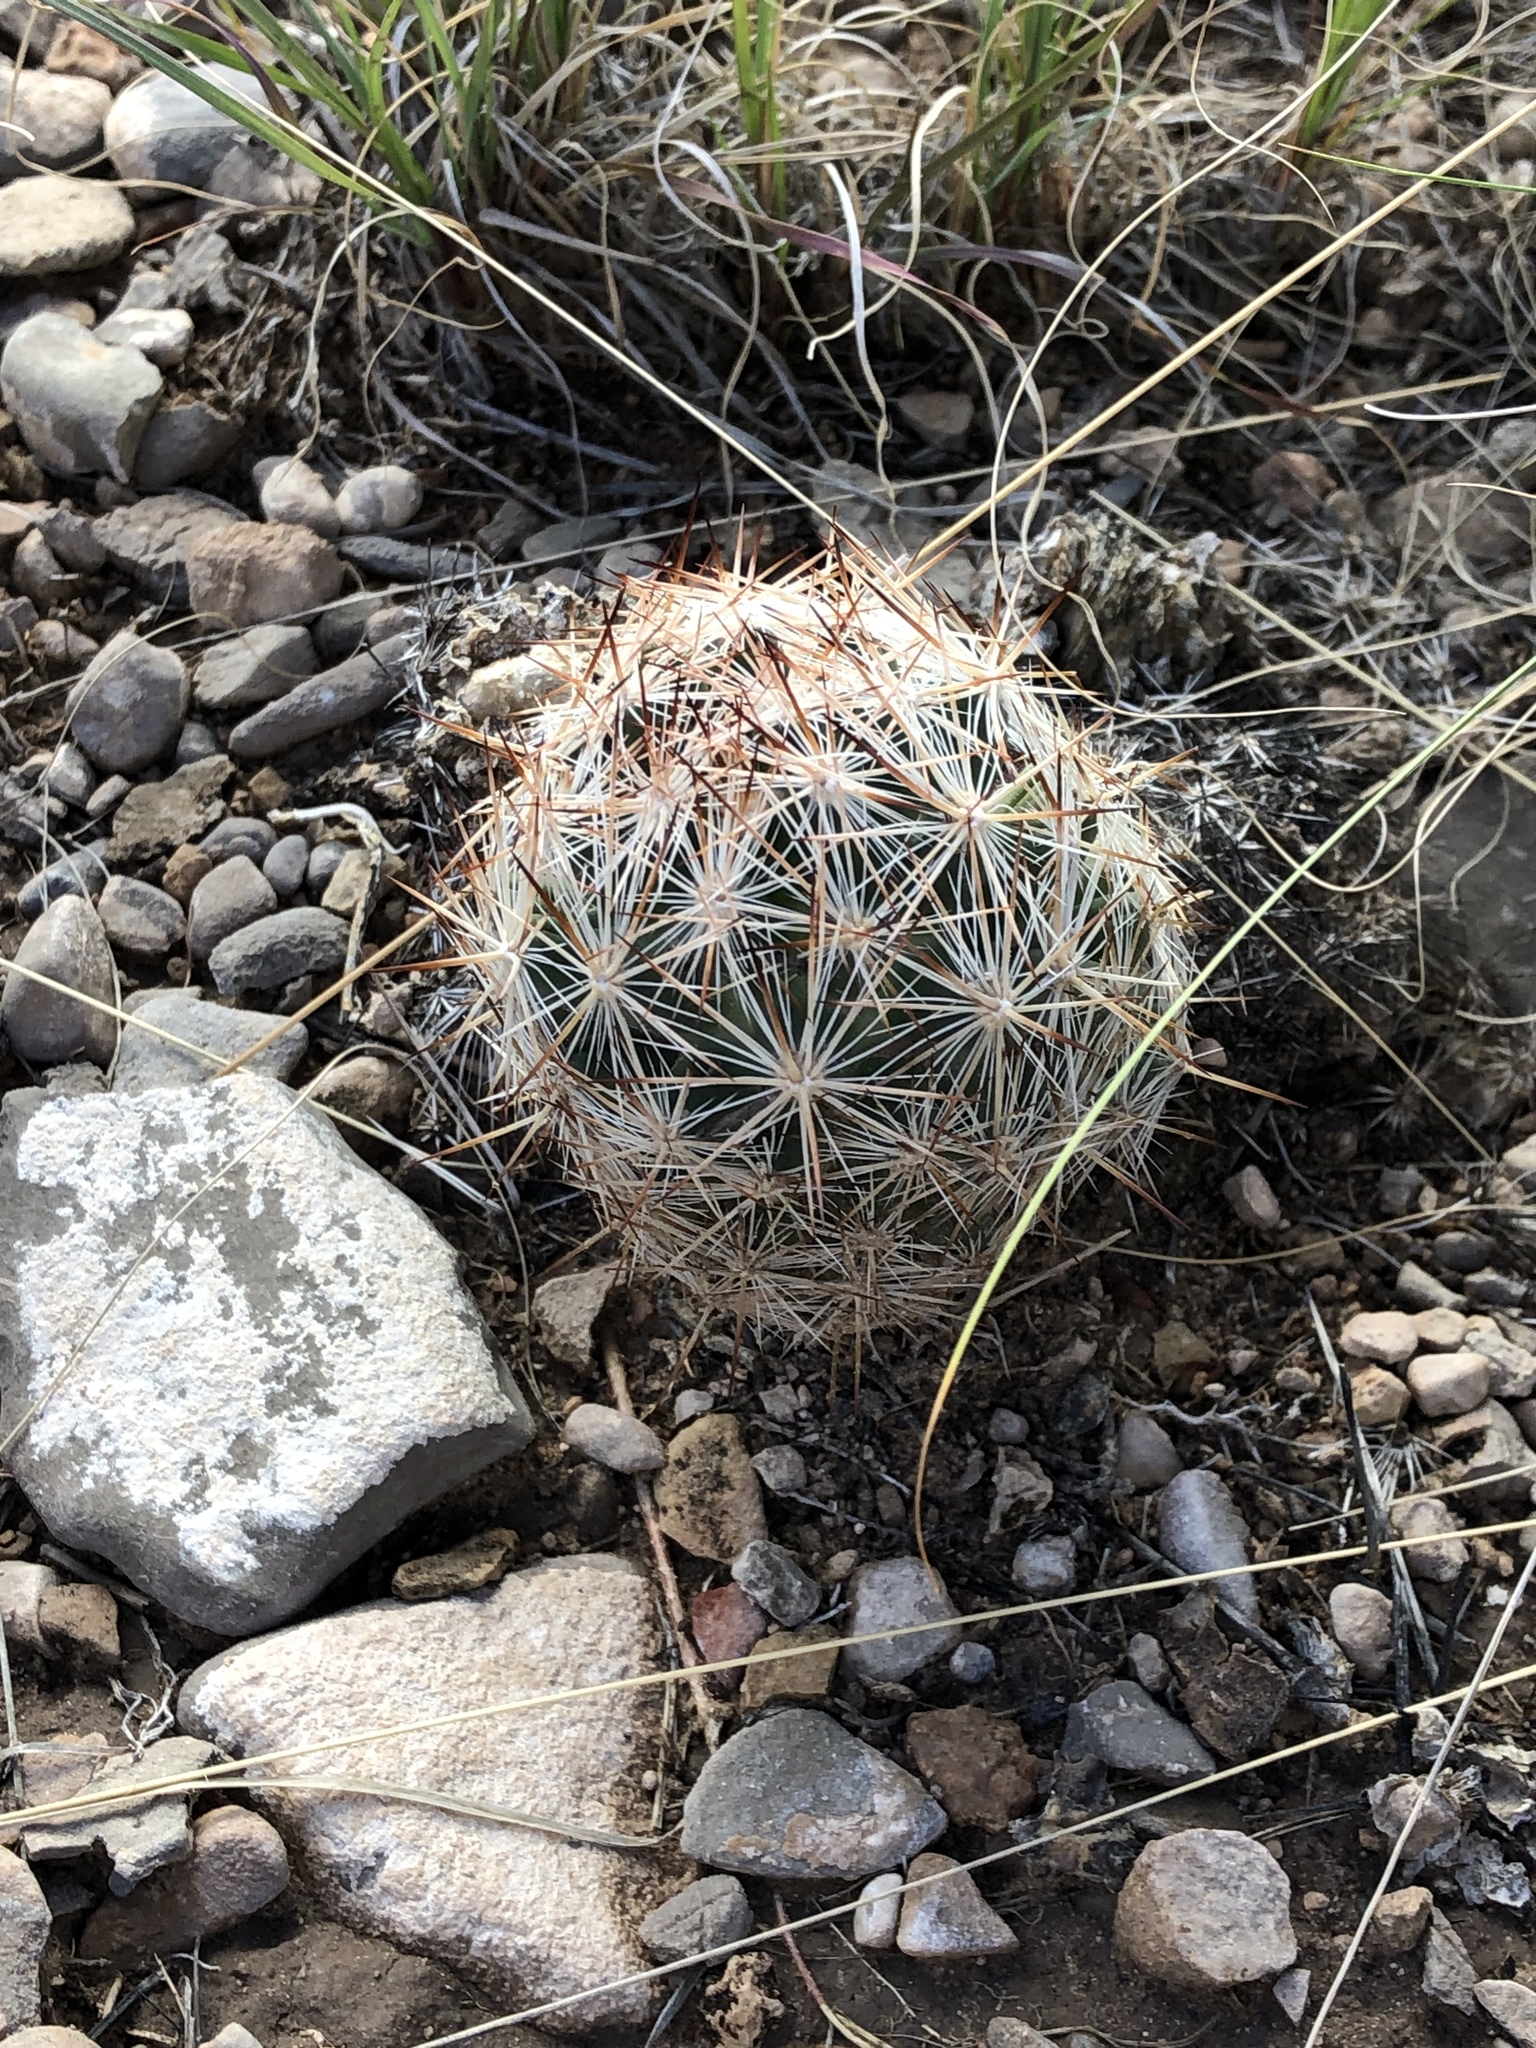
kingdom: Plantae
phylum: Tracheophyta
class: Magnoliopsida
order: Caryophyllales
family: Cactaceae
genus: Pelecyphora
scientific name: Pelecyphora vivipara
